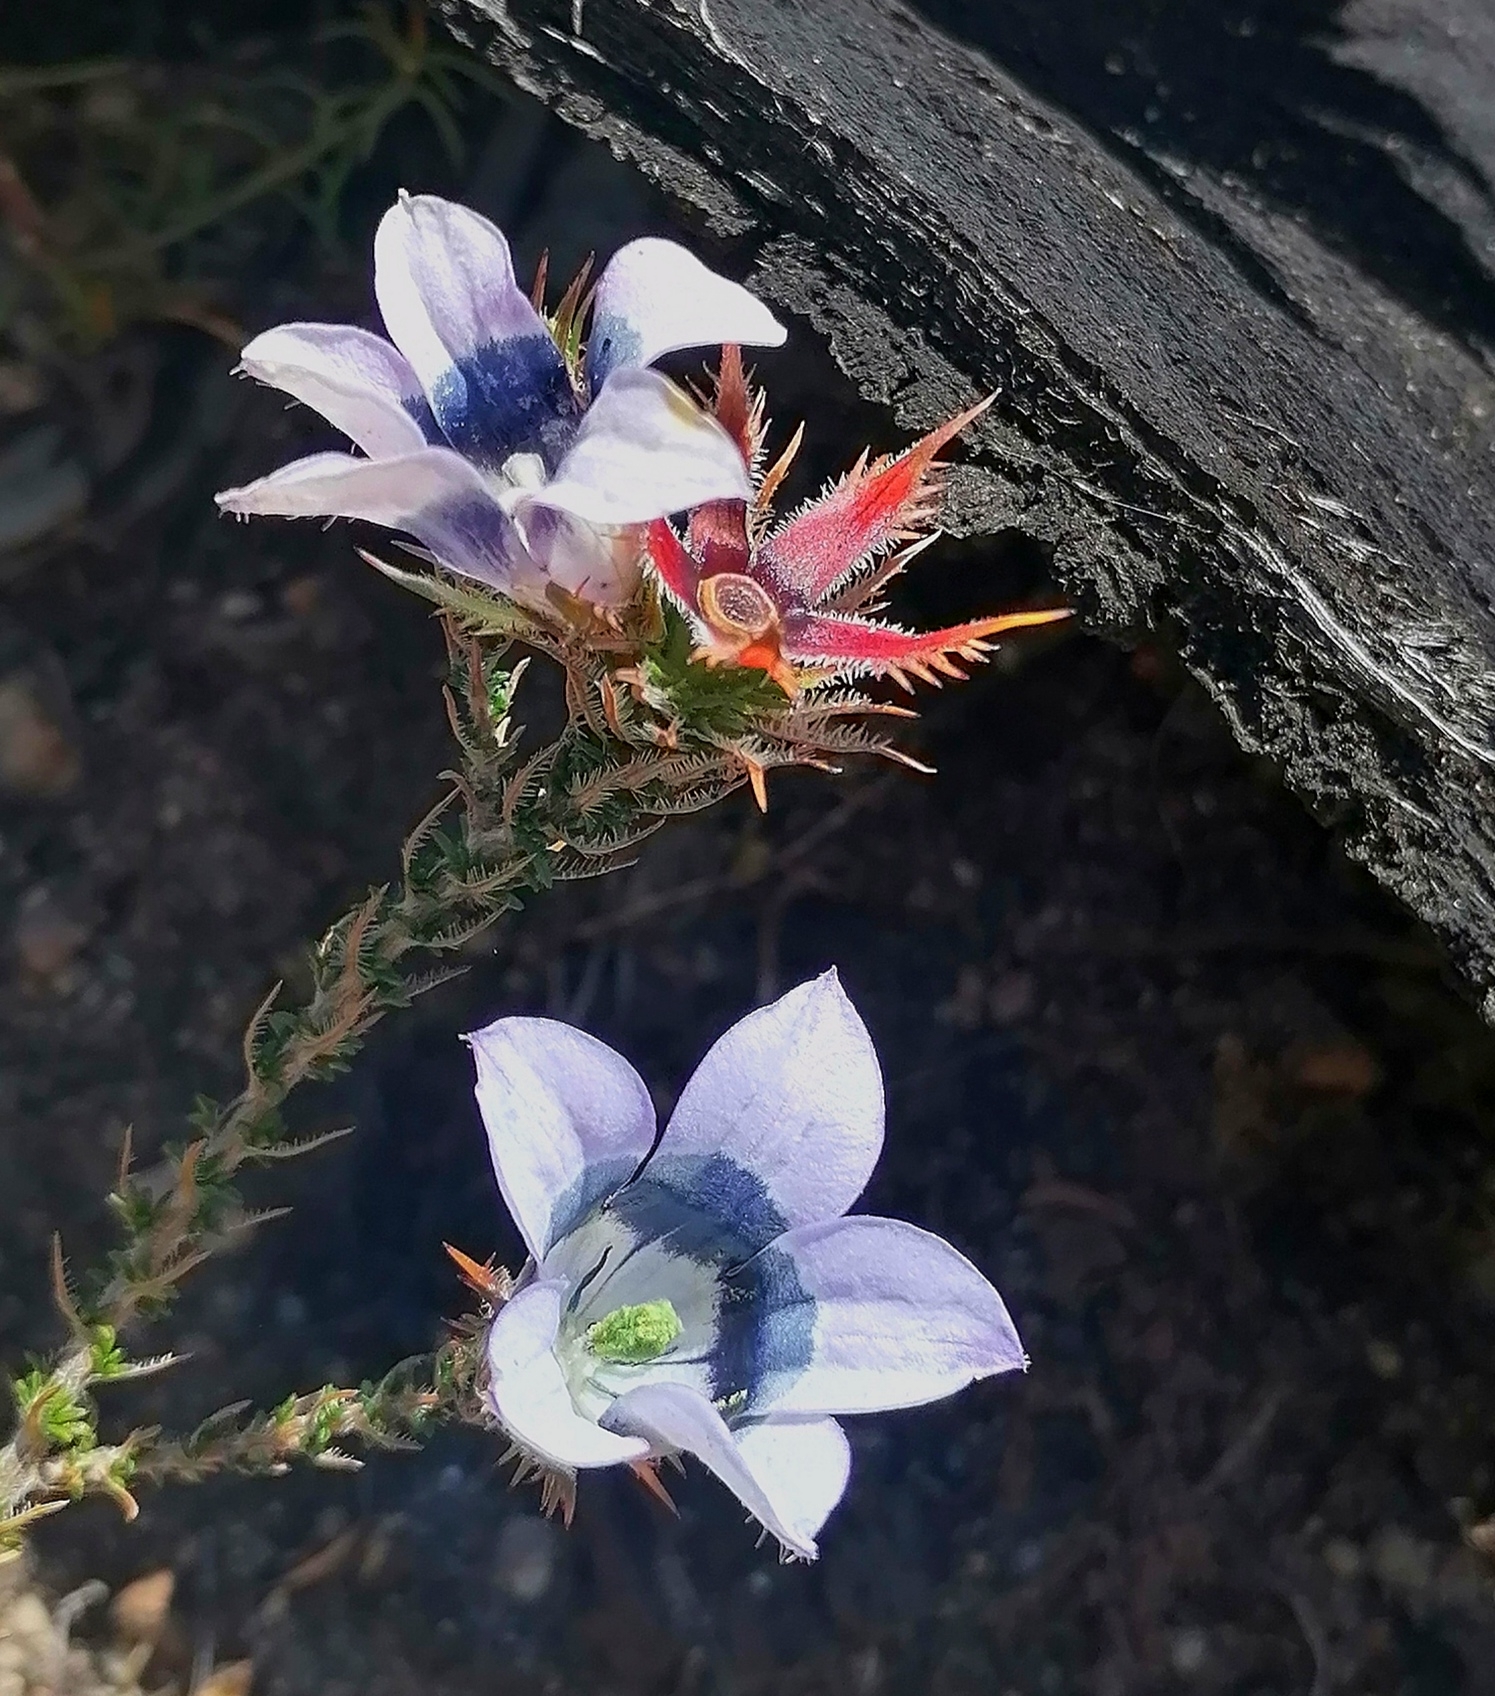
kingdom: Plantae
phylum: Tracheophyta
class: Magnoliopsida
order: Asterales
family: Campanulaceae
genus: Roella
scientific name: Roella ciliata
